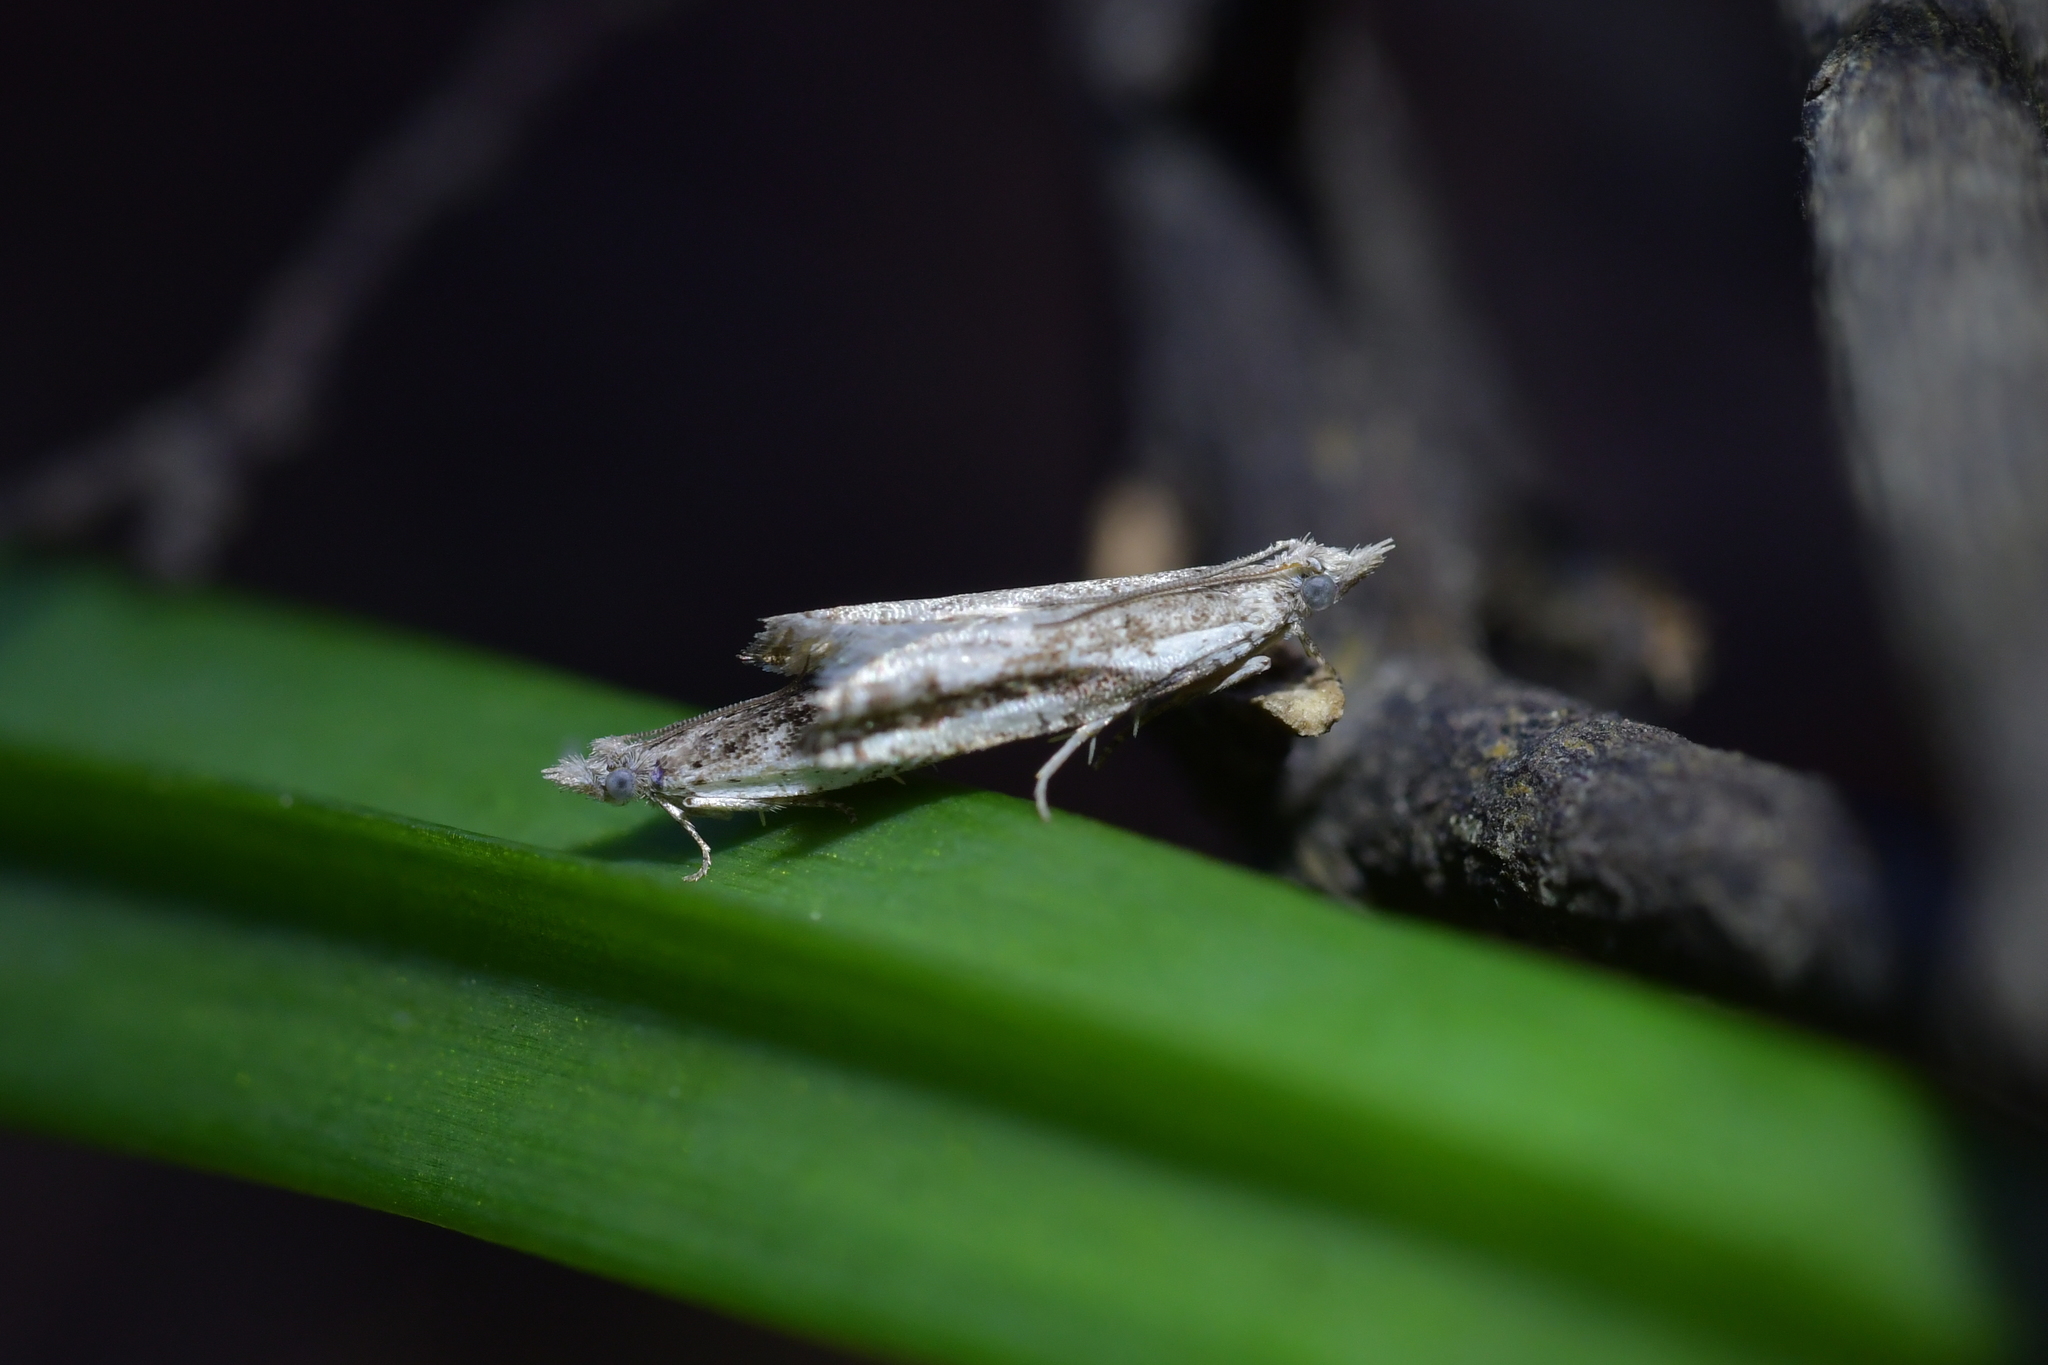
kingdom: Animalia
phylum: Arthropoda
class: Insecta
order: Lepidoptera
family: Tortricidae
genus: Holocola
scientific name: Holocola
